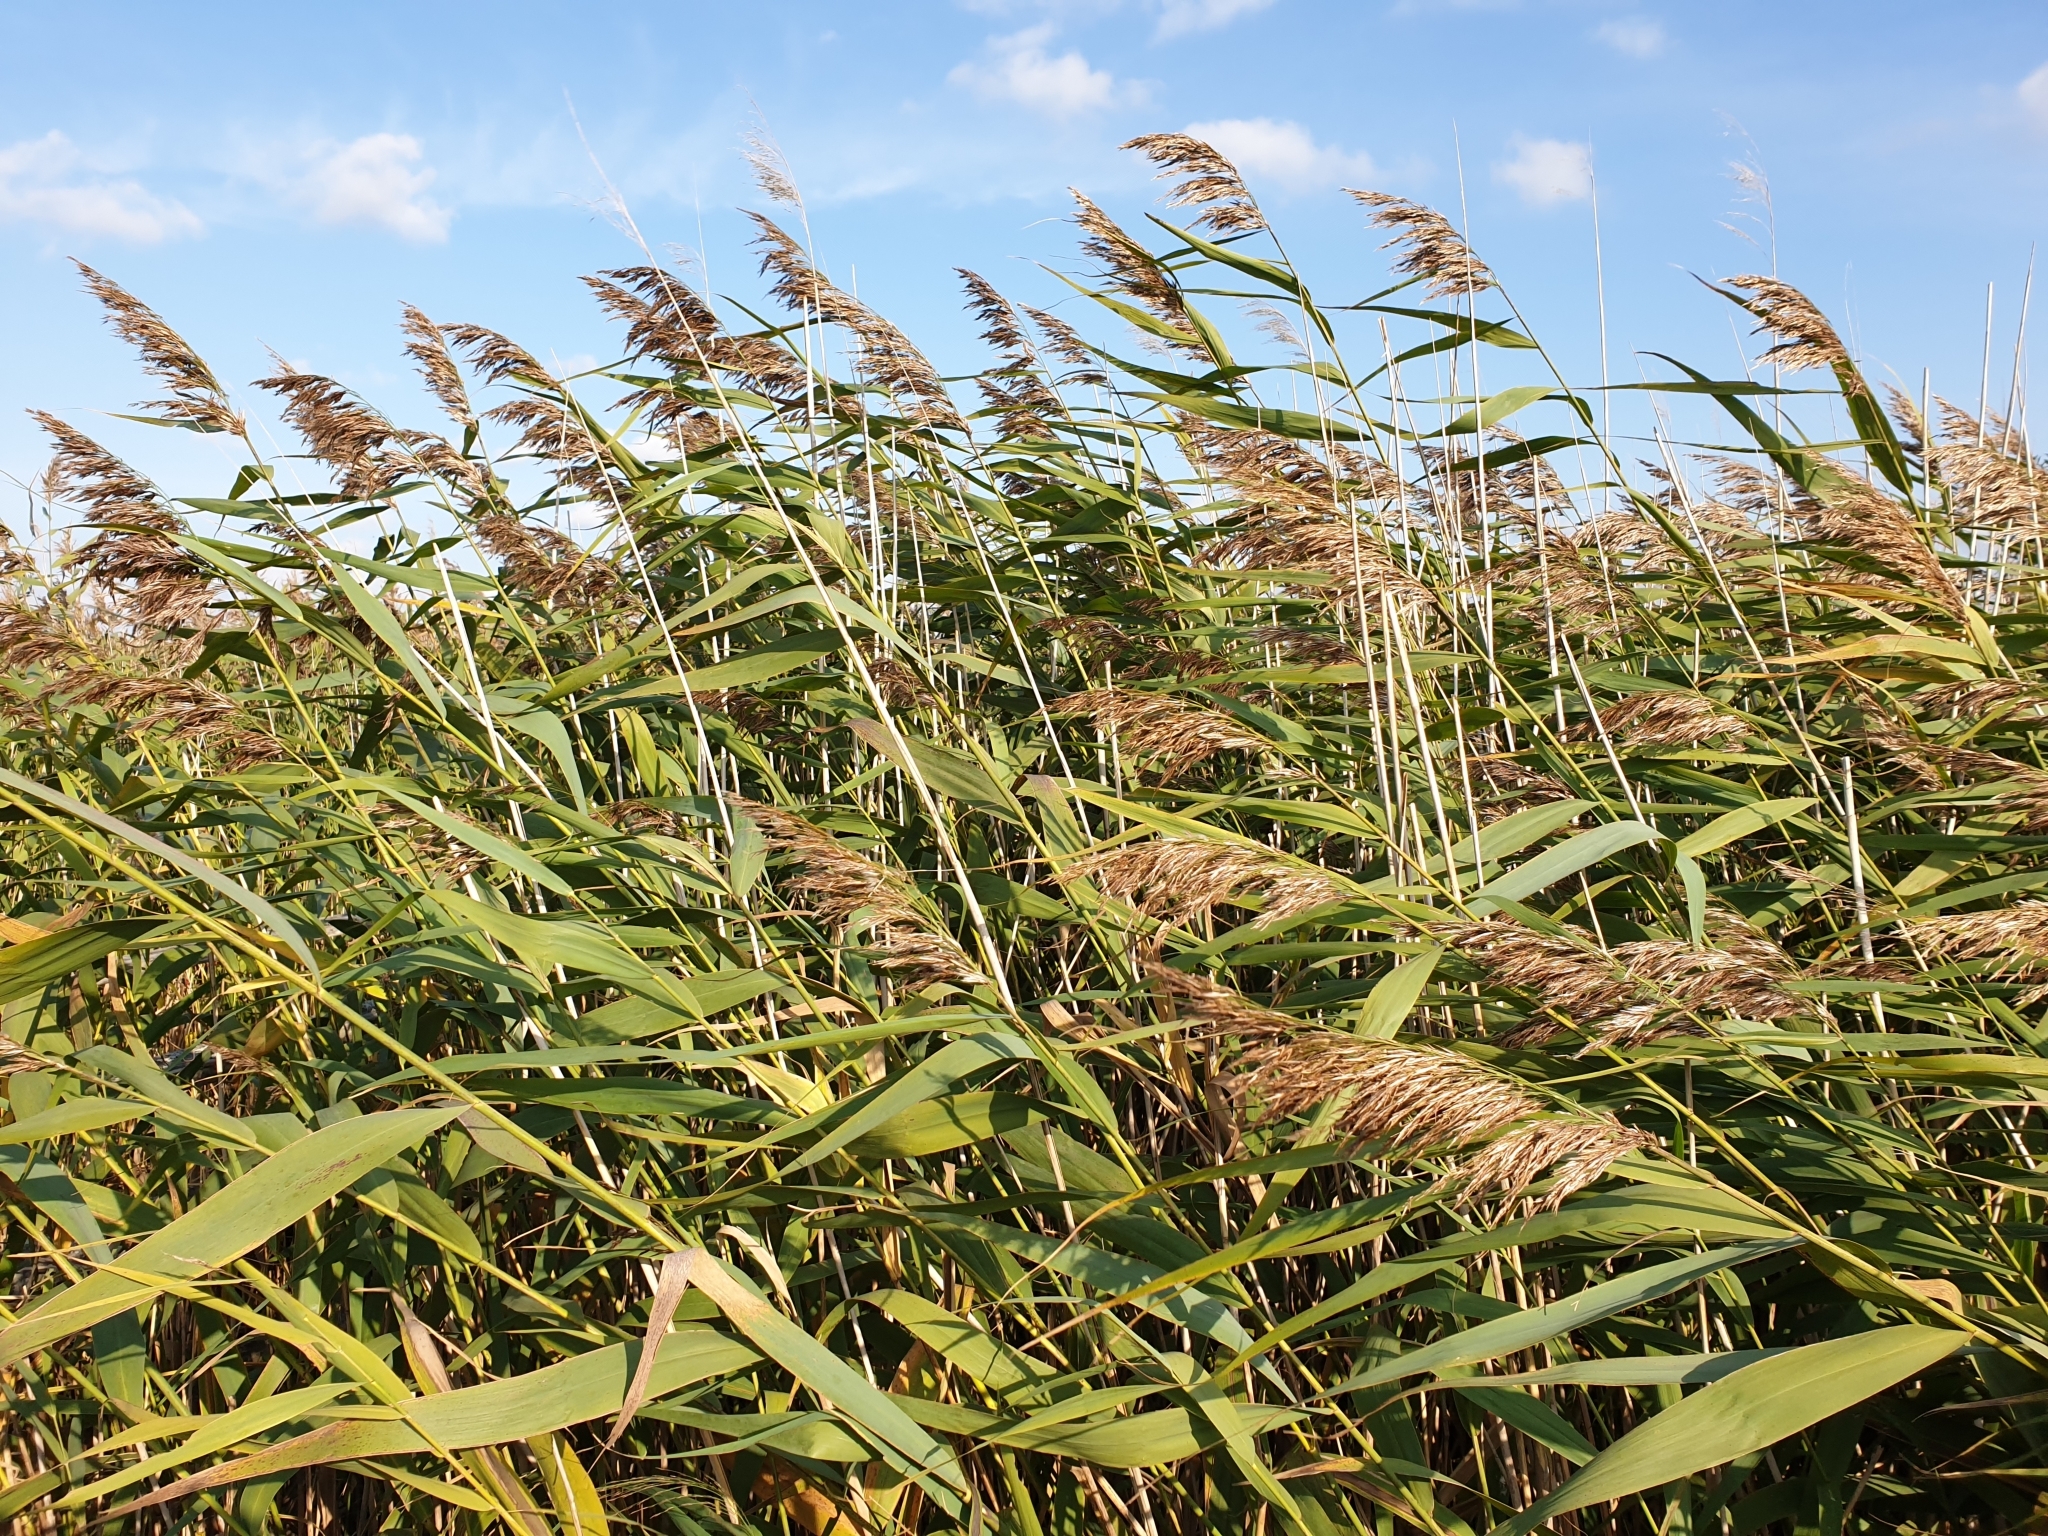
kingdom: Plantae
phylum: Tracheophyta
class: Liliopsida
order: Poales
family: Poaceae
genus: Phragmites
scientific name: Phragmites australis
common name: Common reed
